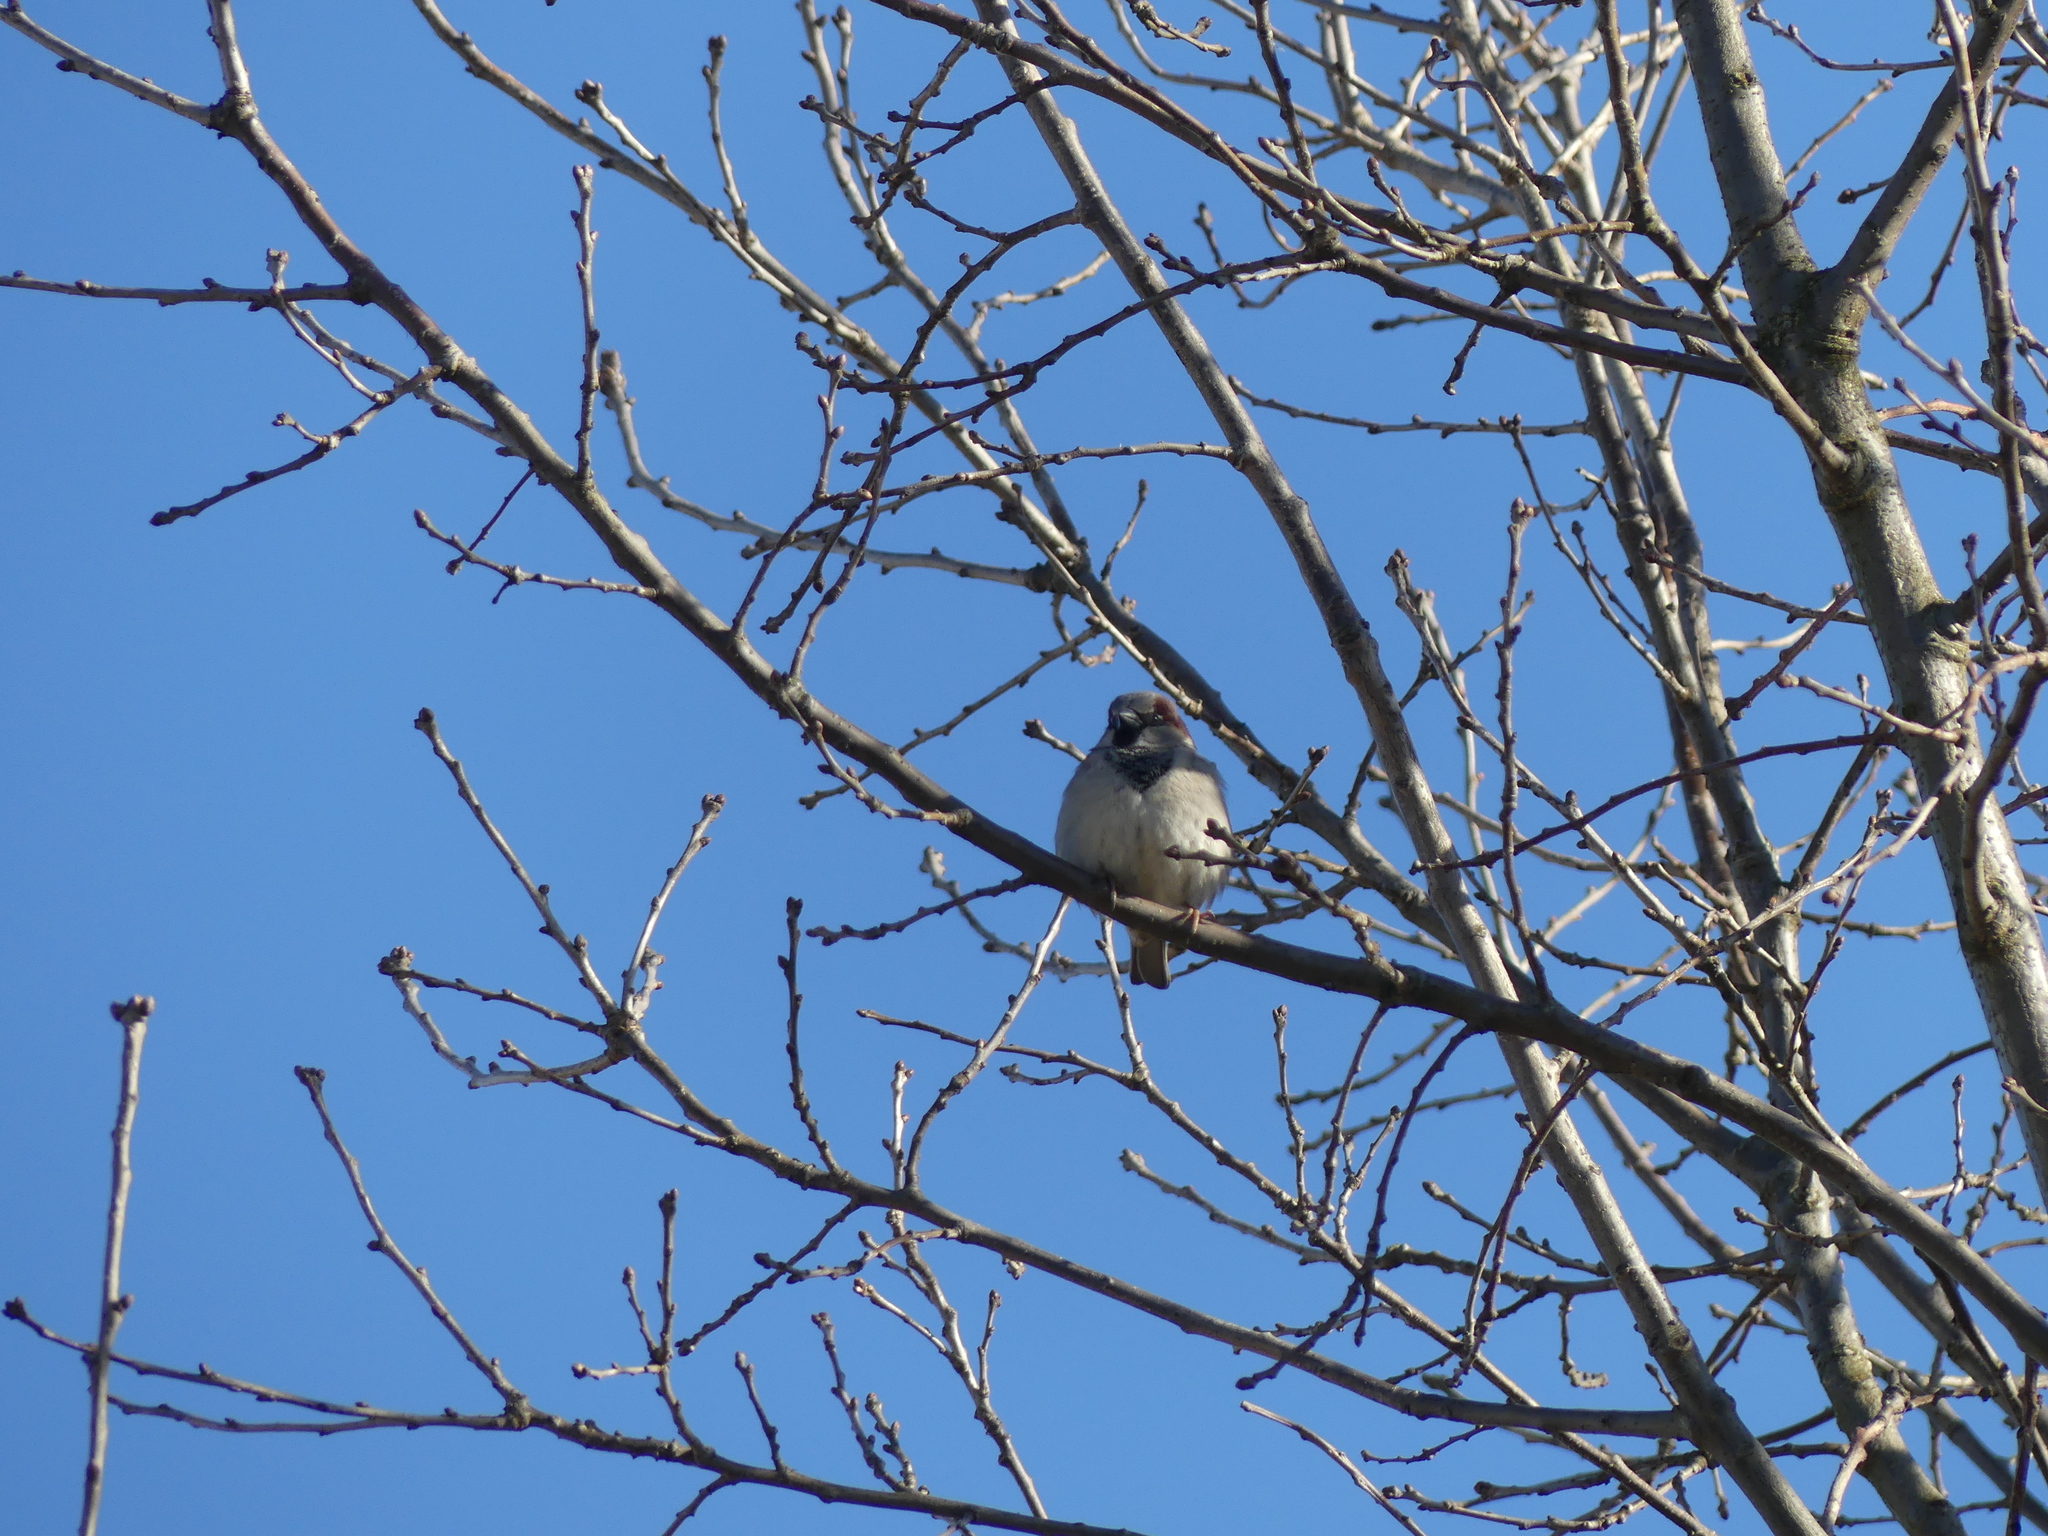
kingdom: Animalia
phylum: Chordata
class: Aves
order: Passeriformes
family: Passeridae
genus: Passer
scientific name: Passer domesticus
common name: House sparrow
